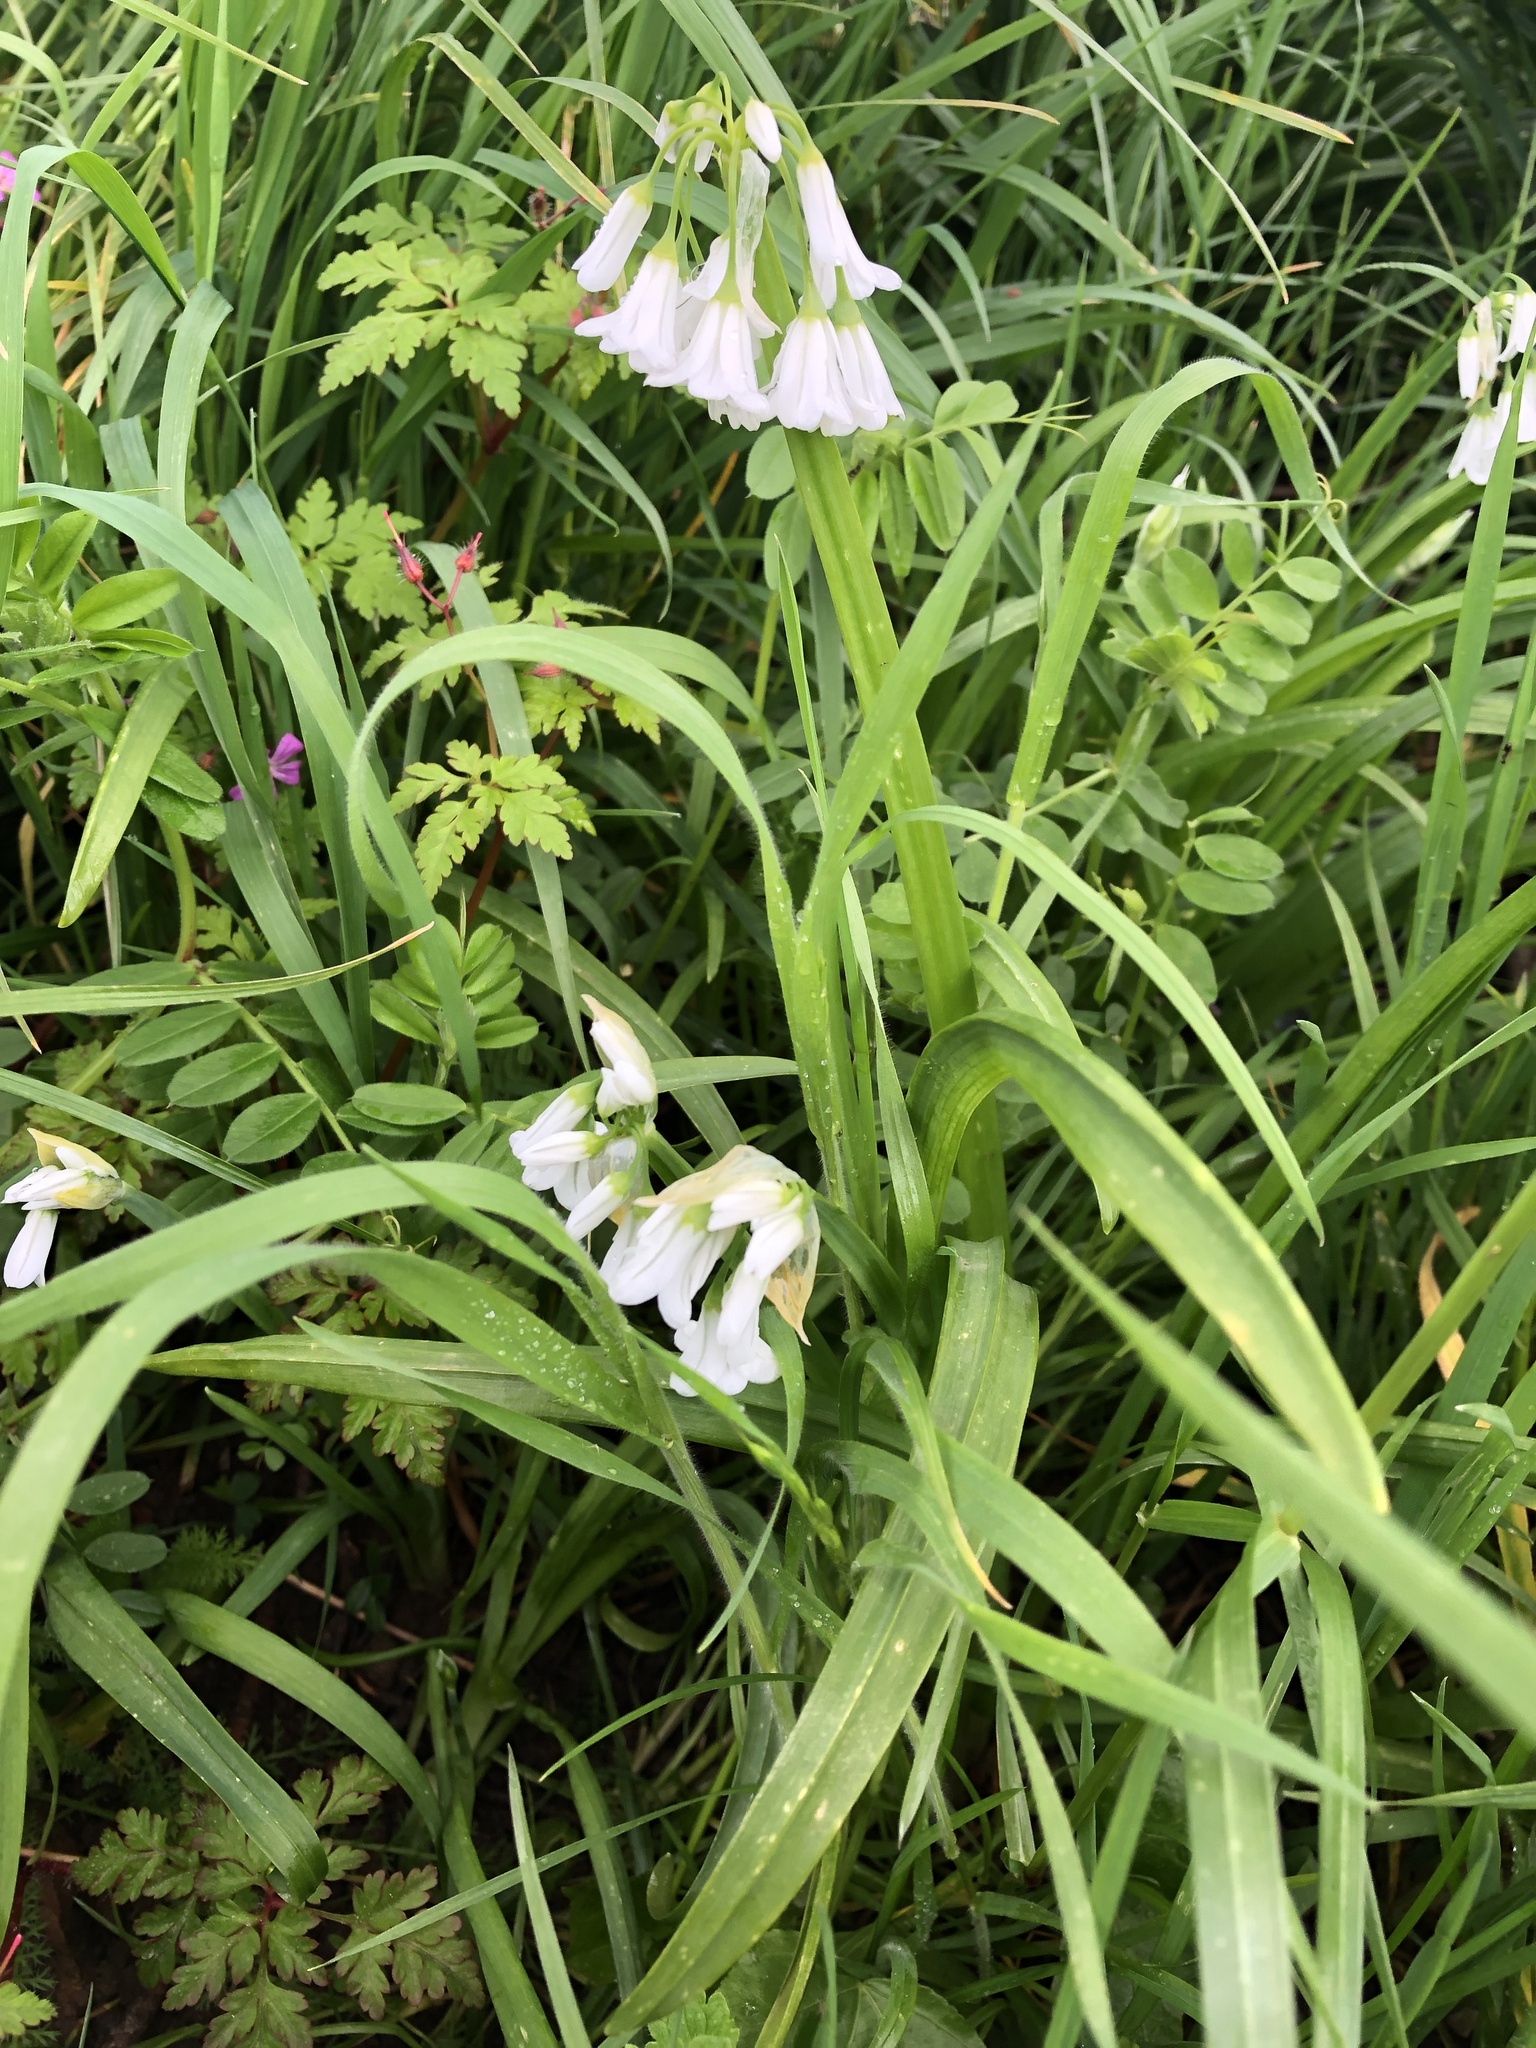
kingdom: Plantae
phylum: Tracheophyta
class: Liliopsida
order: Asparagales
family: Amaryllidaceae
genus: Allium
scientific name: Allium triquetrum
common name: Three-cornered garlic
